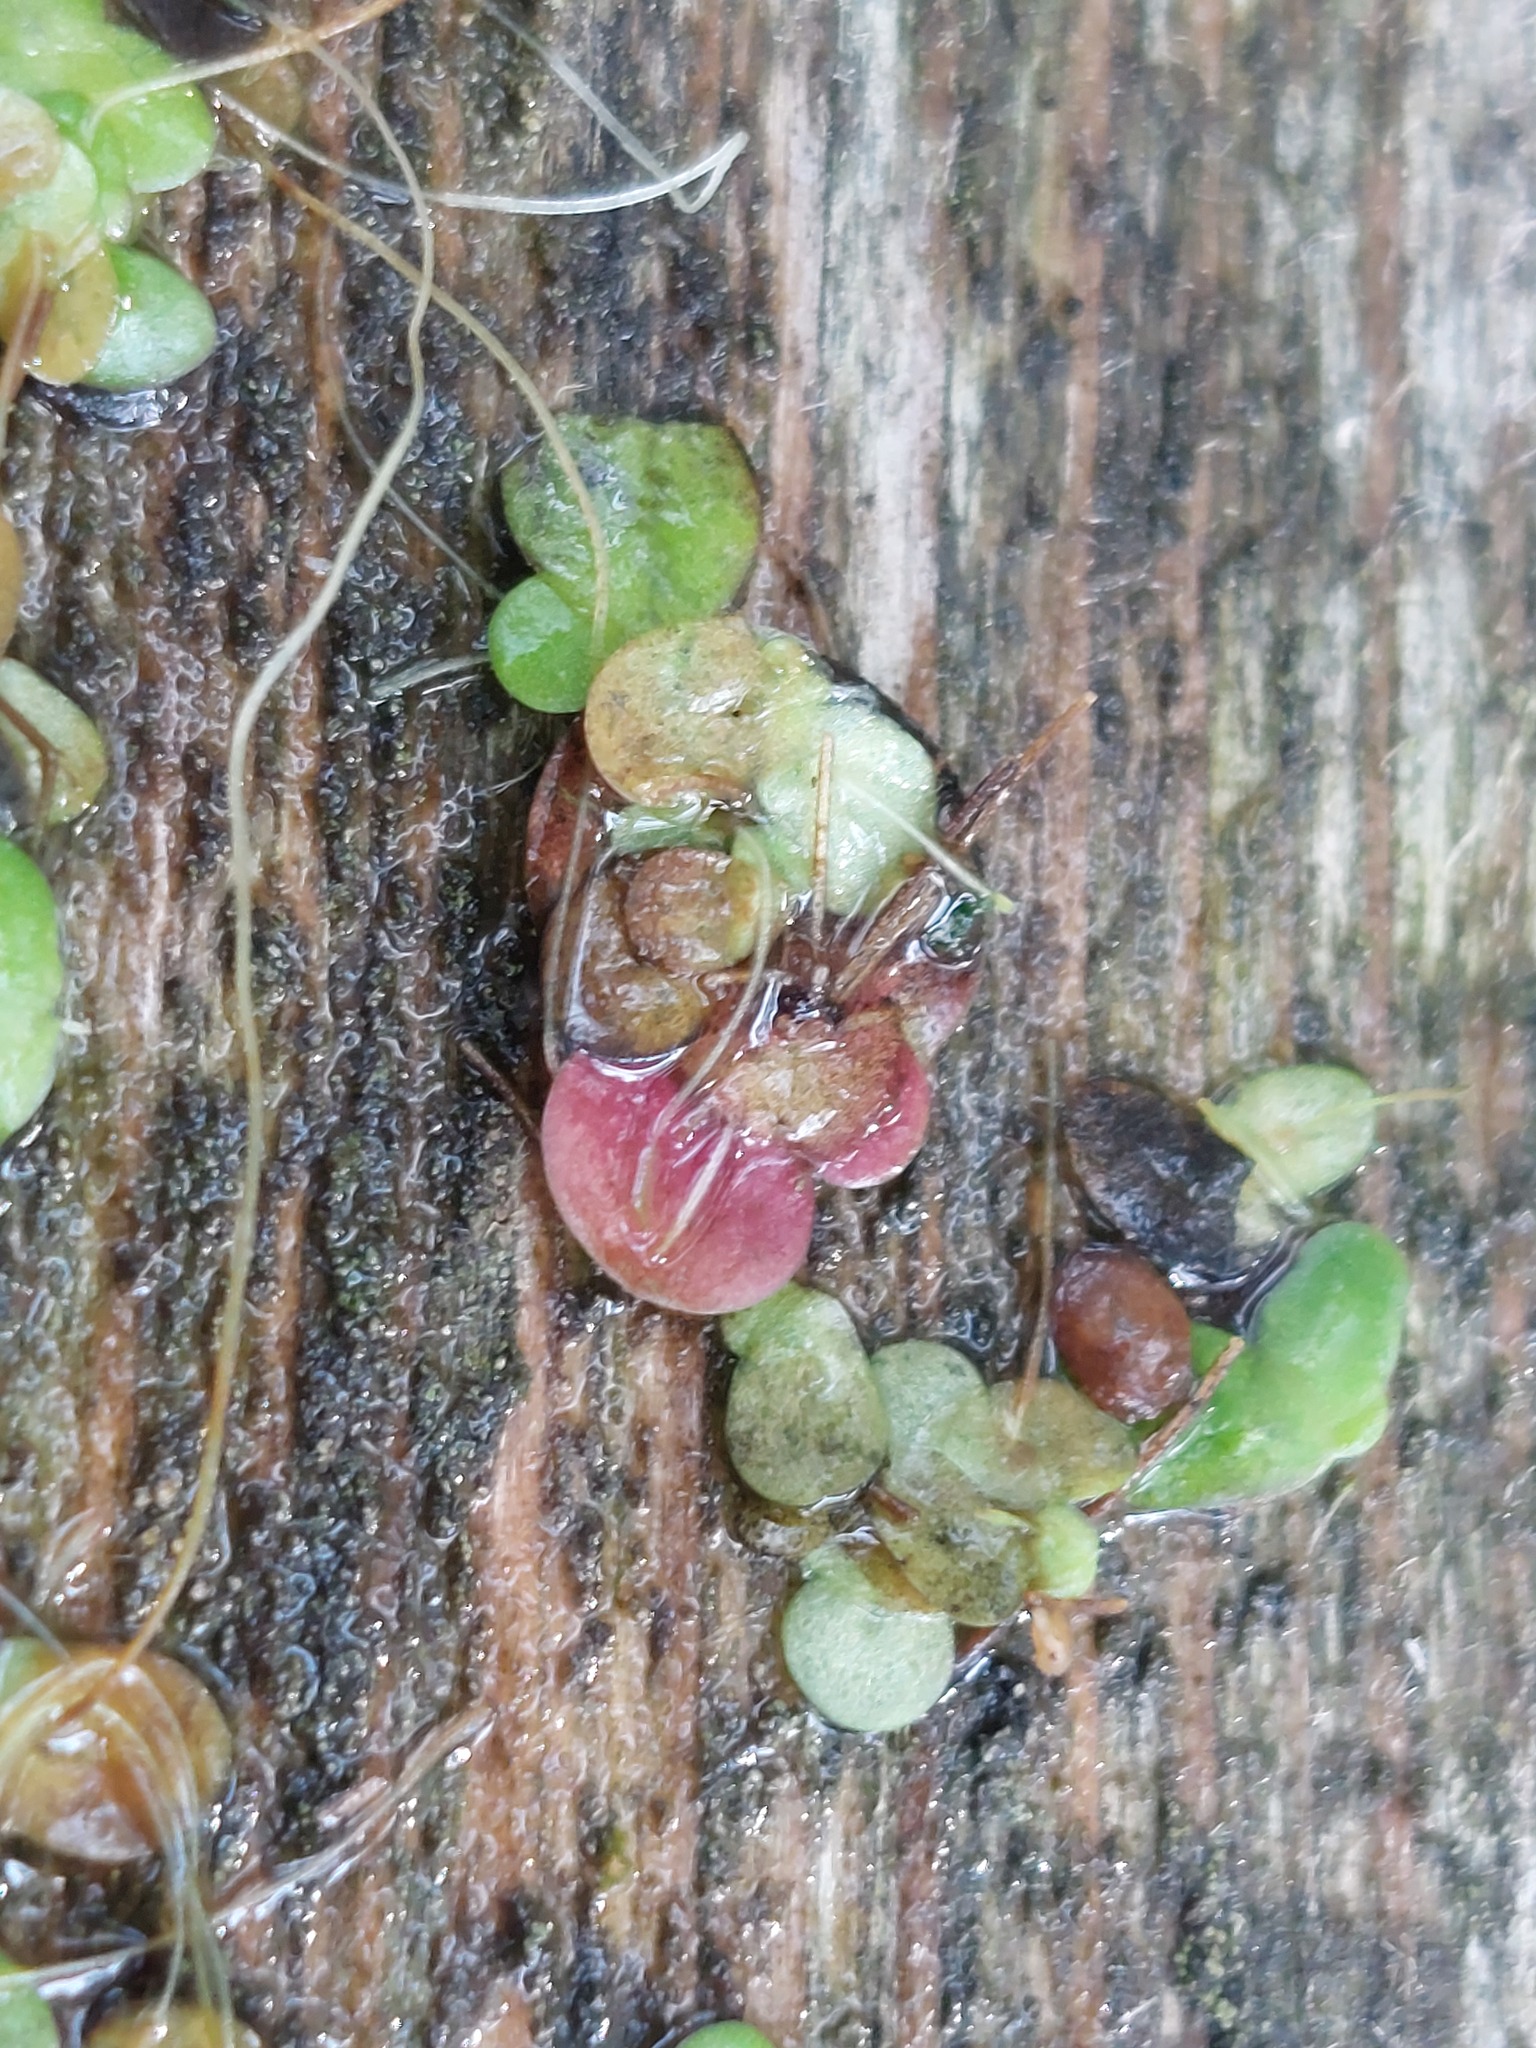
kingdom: Plantae
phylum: Tracheophyta
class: Liliopsida
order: Alismatales
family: Araceae
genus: Spirodela
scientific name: Spirodela polyrhiza
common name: Great duckweed
